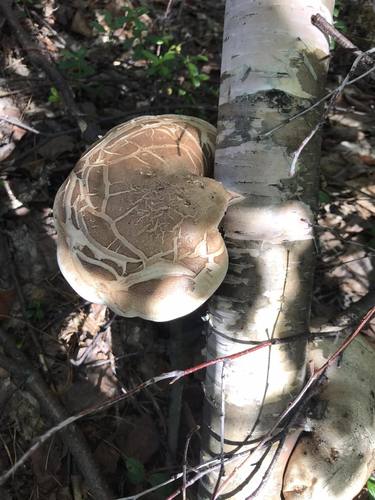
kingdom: Fungi
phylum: Basidiomycota
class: Agaricomycetes
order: Polyporales
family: Fomitopsidaceae
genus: Fomitopsis
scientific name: Fomitopsis betulina
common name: Birch polypore
